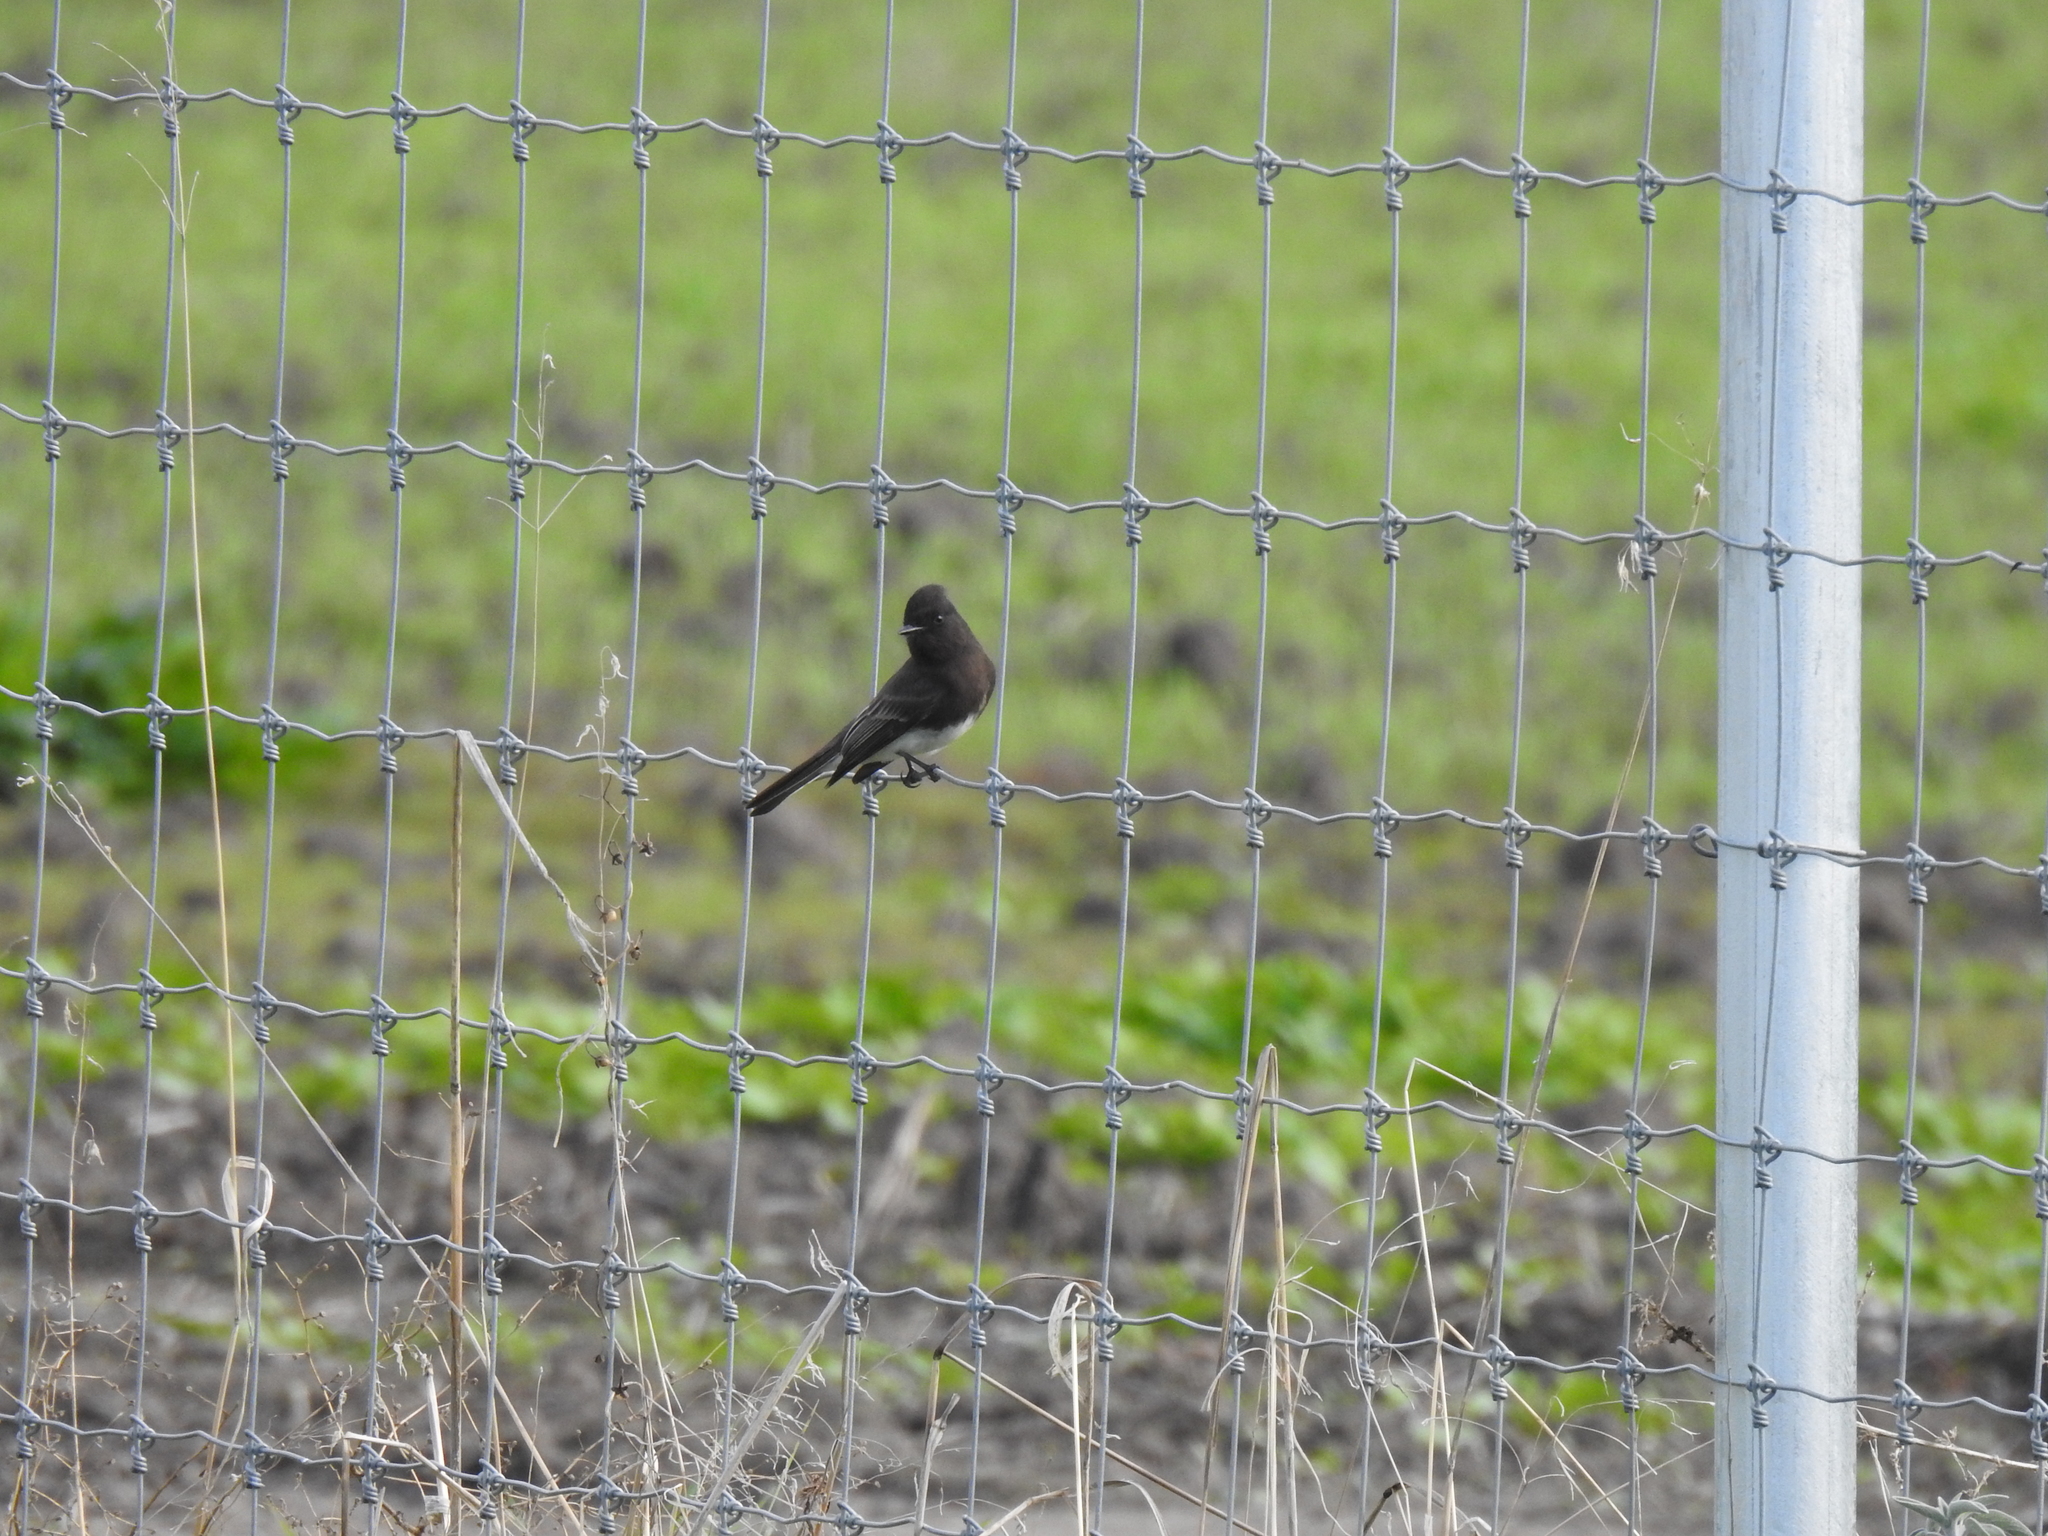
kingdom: Animalia
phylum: Chordata
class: Aves
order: Passeriformes
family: Tyrannidae
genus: Sayornis
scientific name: Sayornis nigricans
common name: Black phoebe
